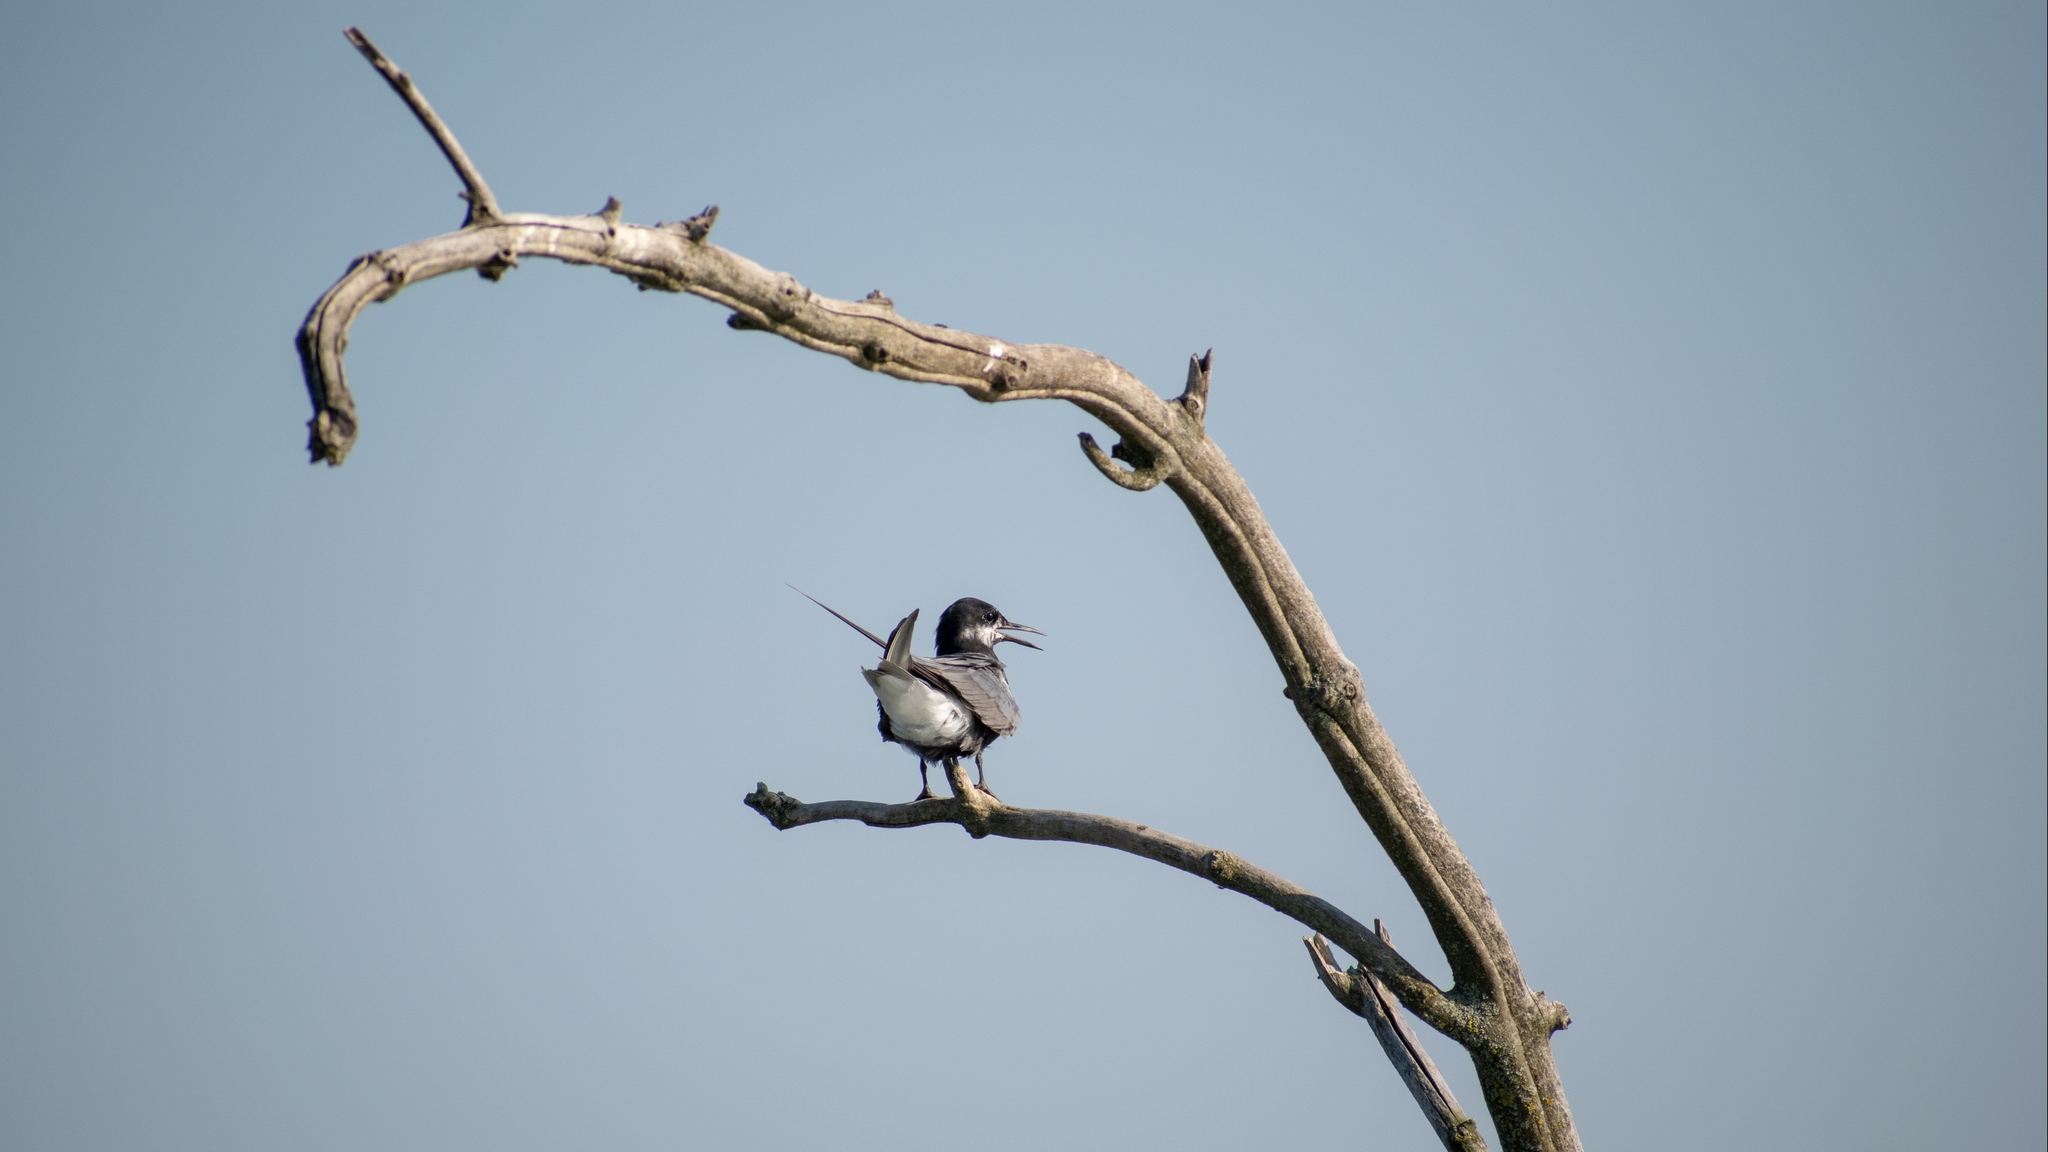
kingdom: Animalia
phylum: Chordata
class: Aves
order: Charadriiformes
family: Laridae
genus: Chlidonias
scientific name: Chlidonias niger
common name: Black tern
